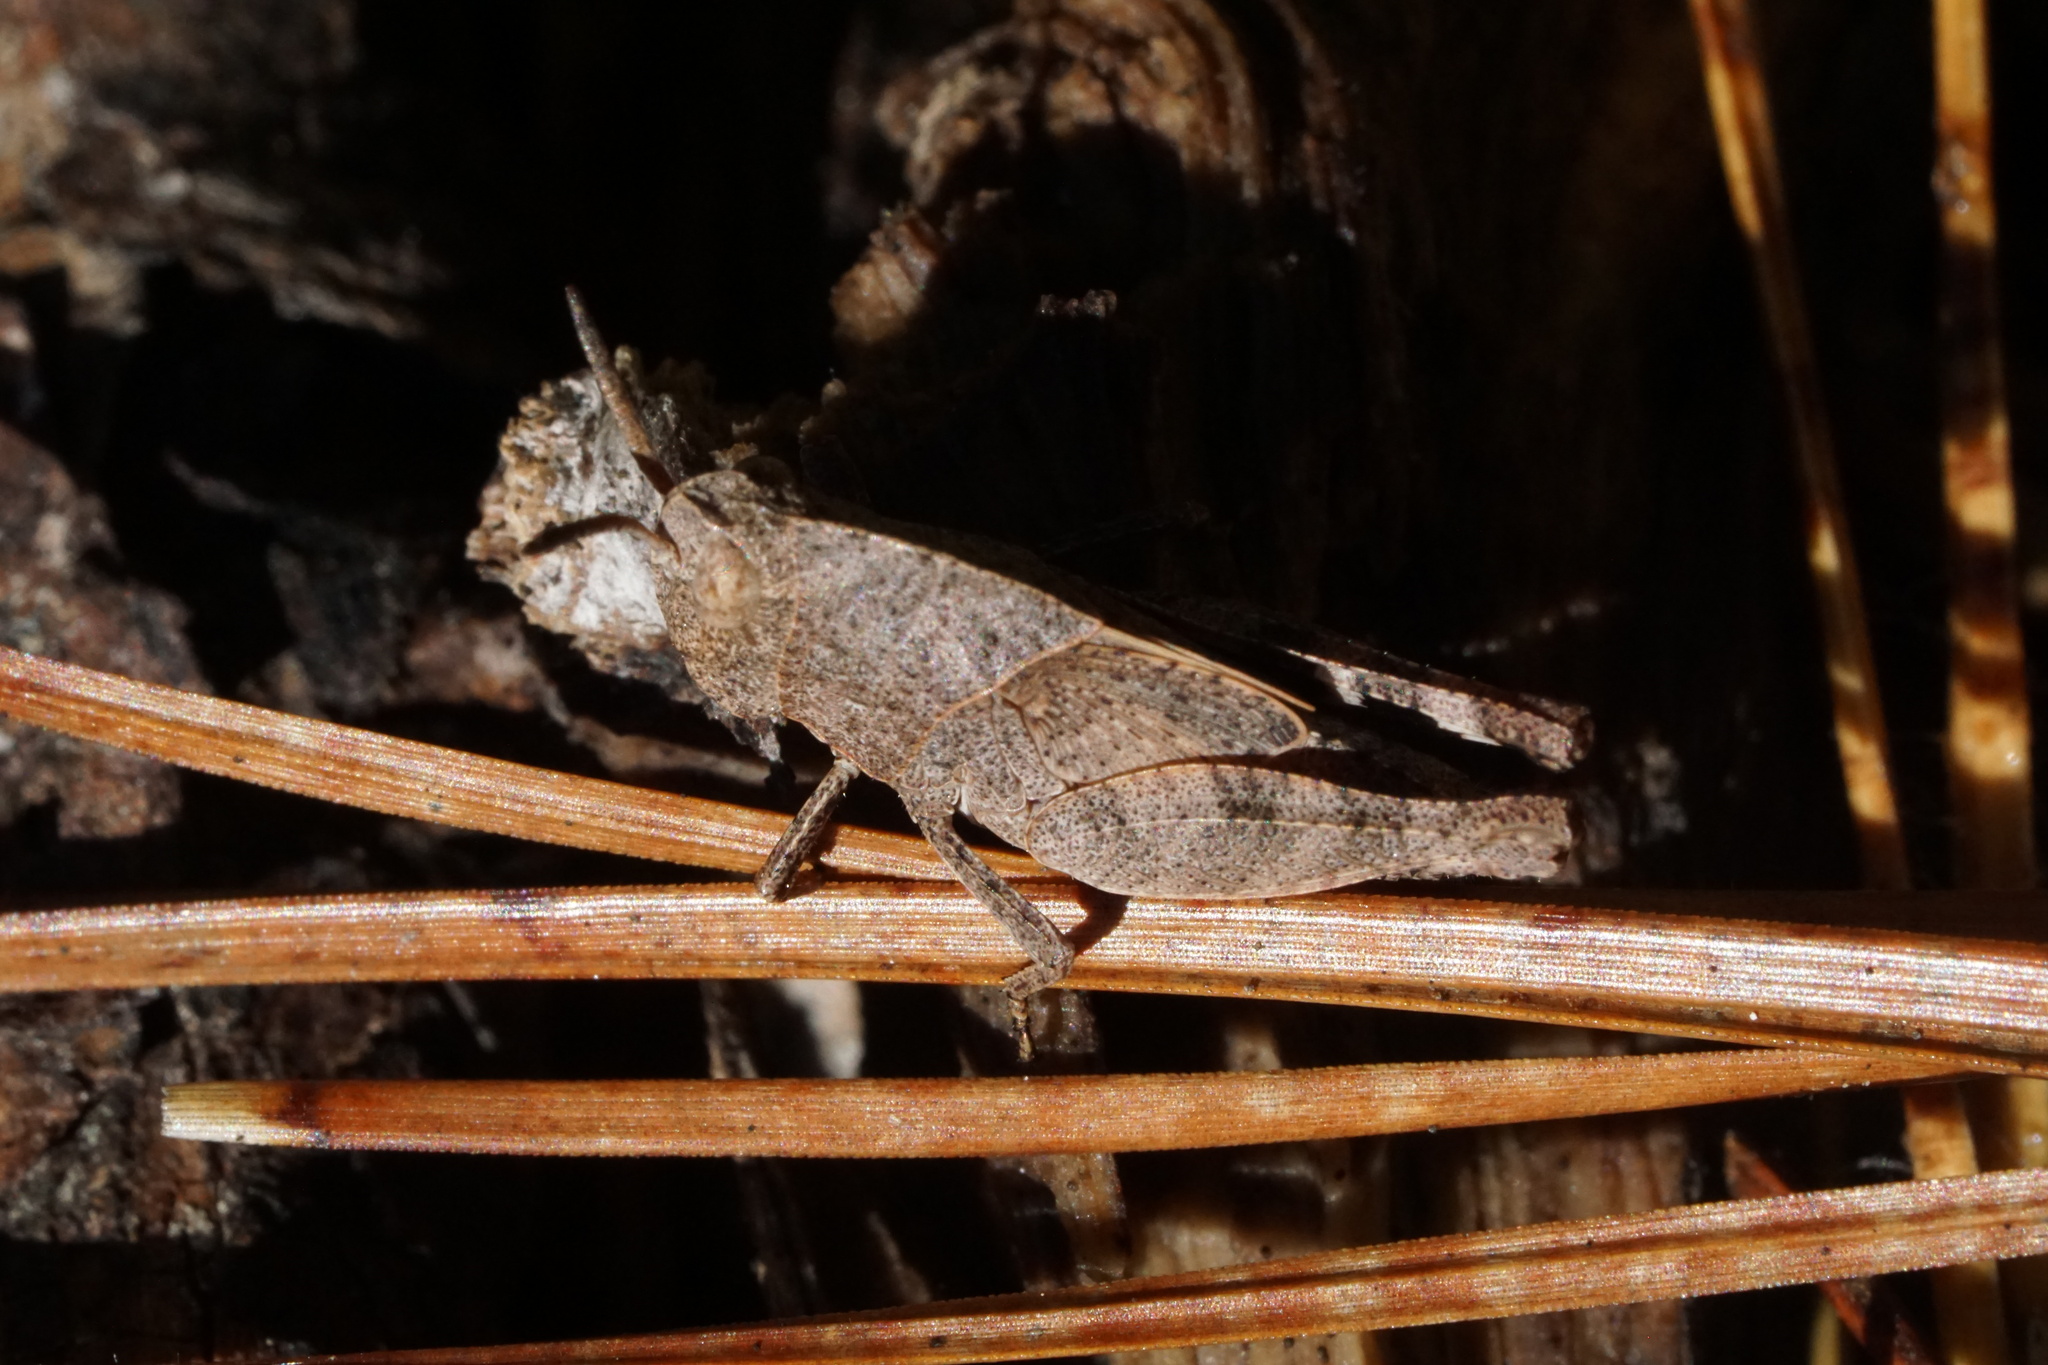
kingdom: Animalia
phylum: Arthropoda
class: Insecta
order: Orthoptera
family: Acrididae
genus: Arphia
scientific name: Arphia sulphurea
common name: Spring yellow-winged locust
